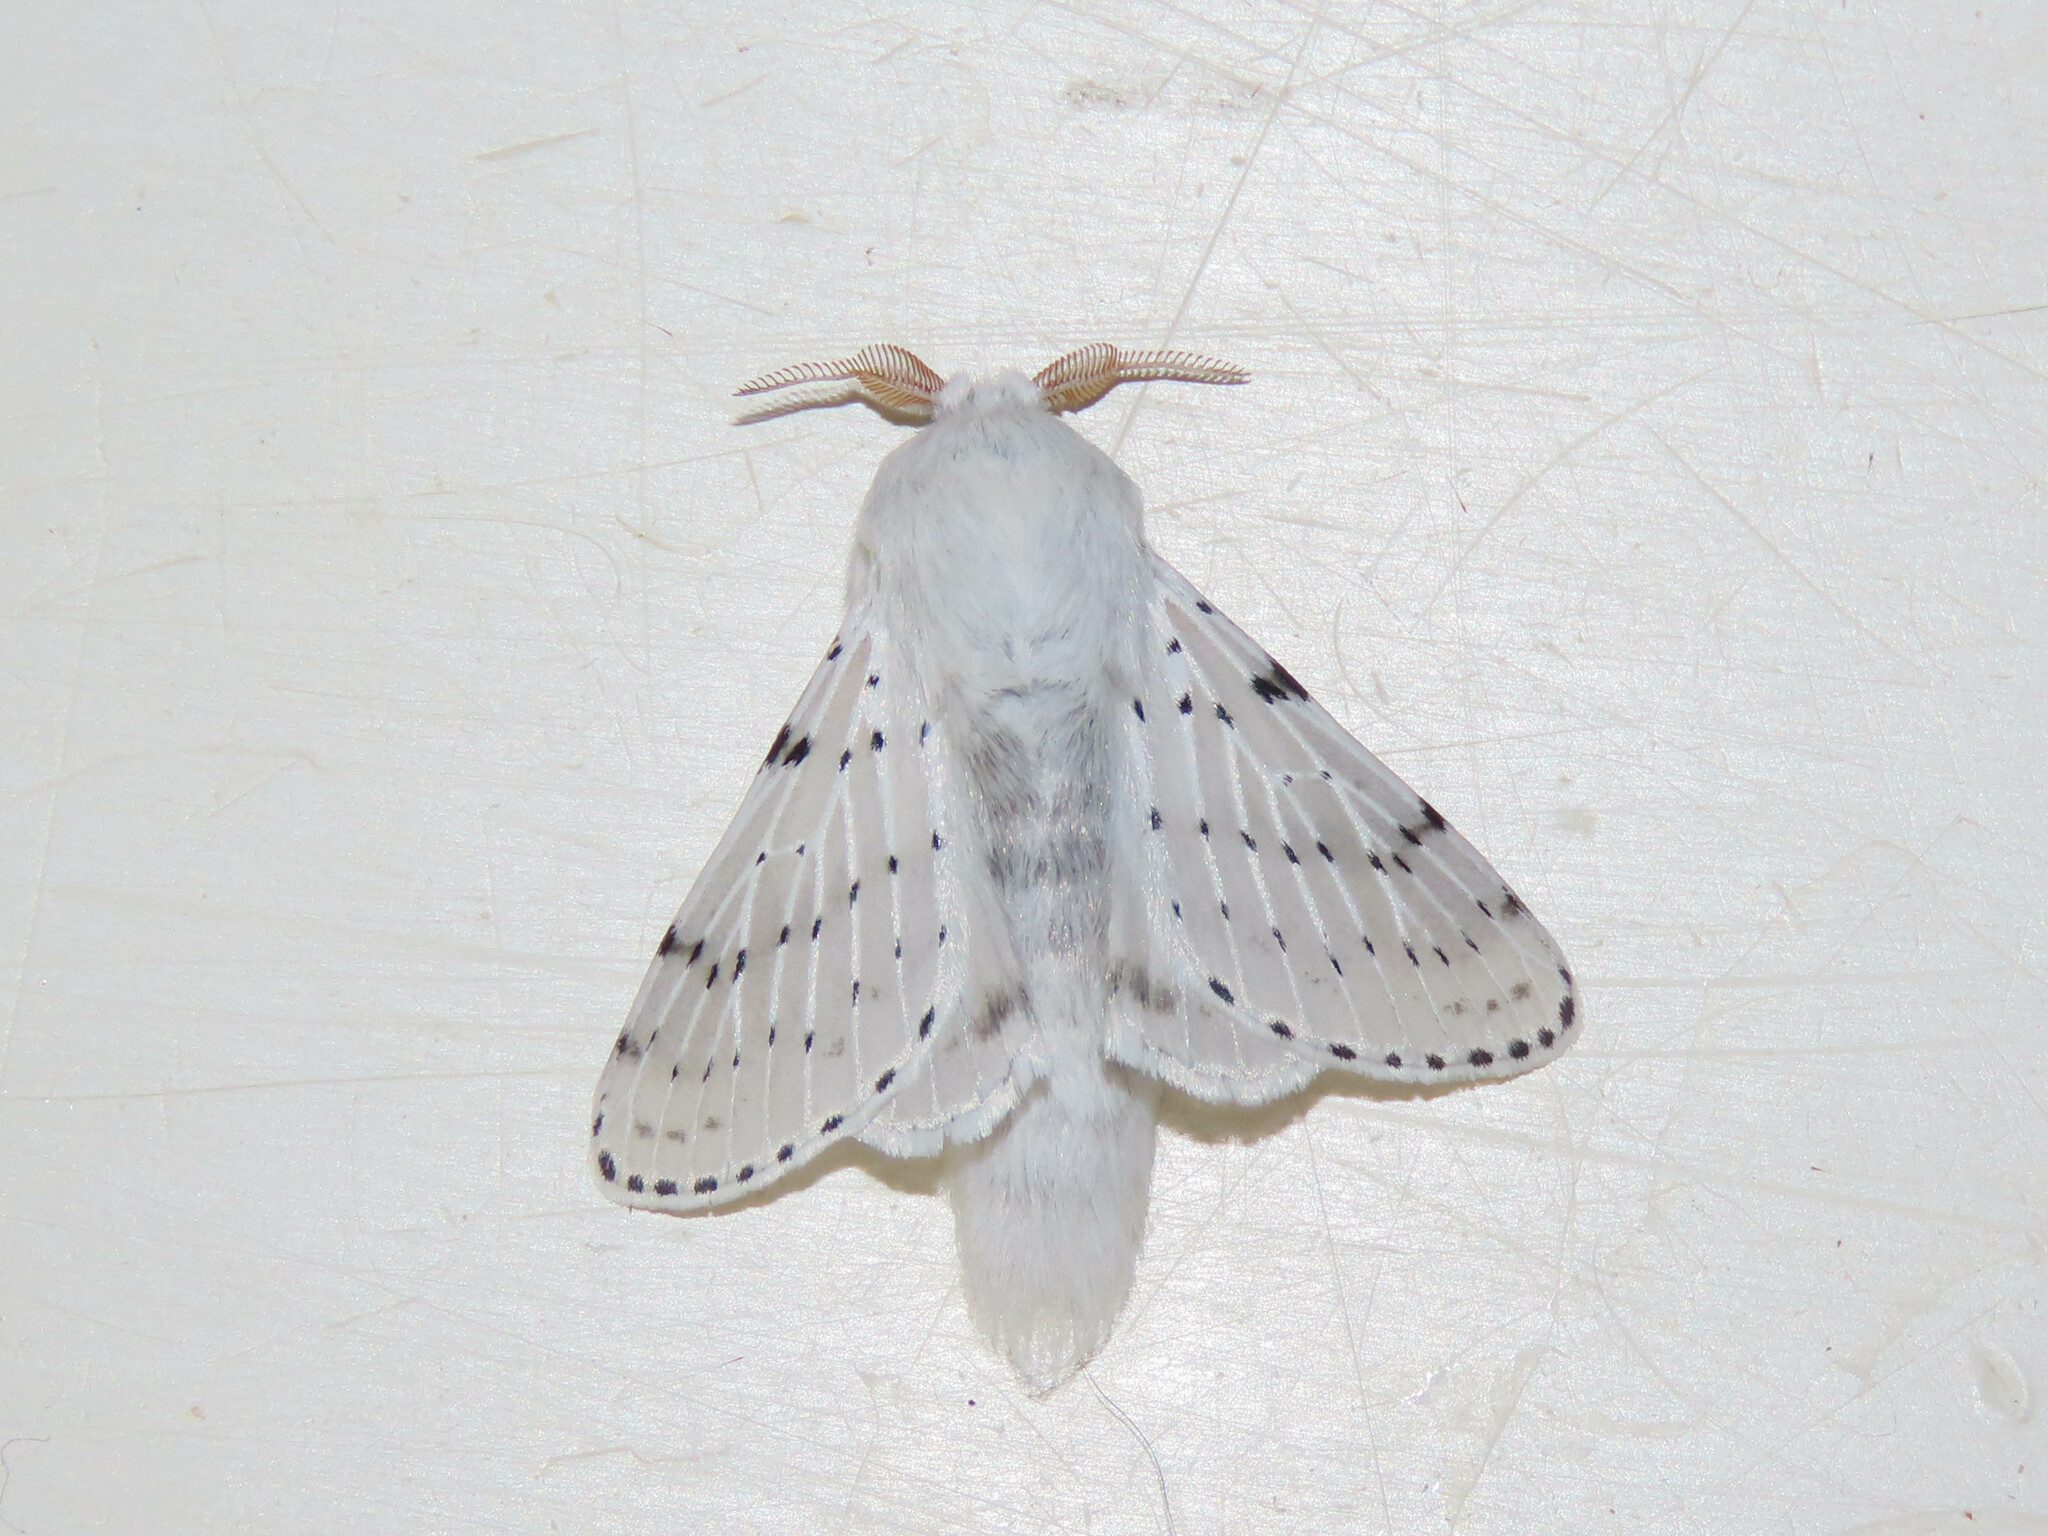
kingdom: Animalia
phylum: Arthropoda
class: Insecta
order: Lepidoptera
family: Lasiocampidae
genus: Artace
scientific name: Artace cribrarius
